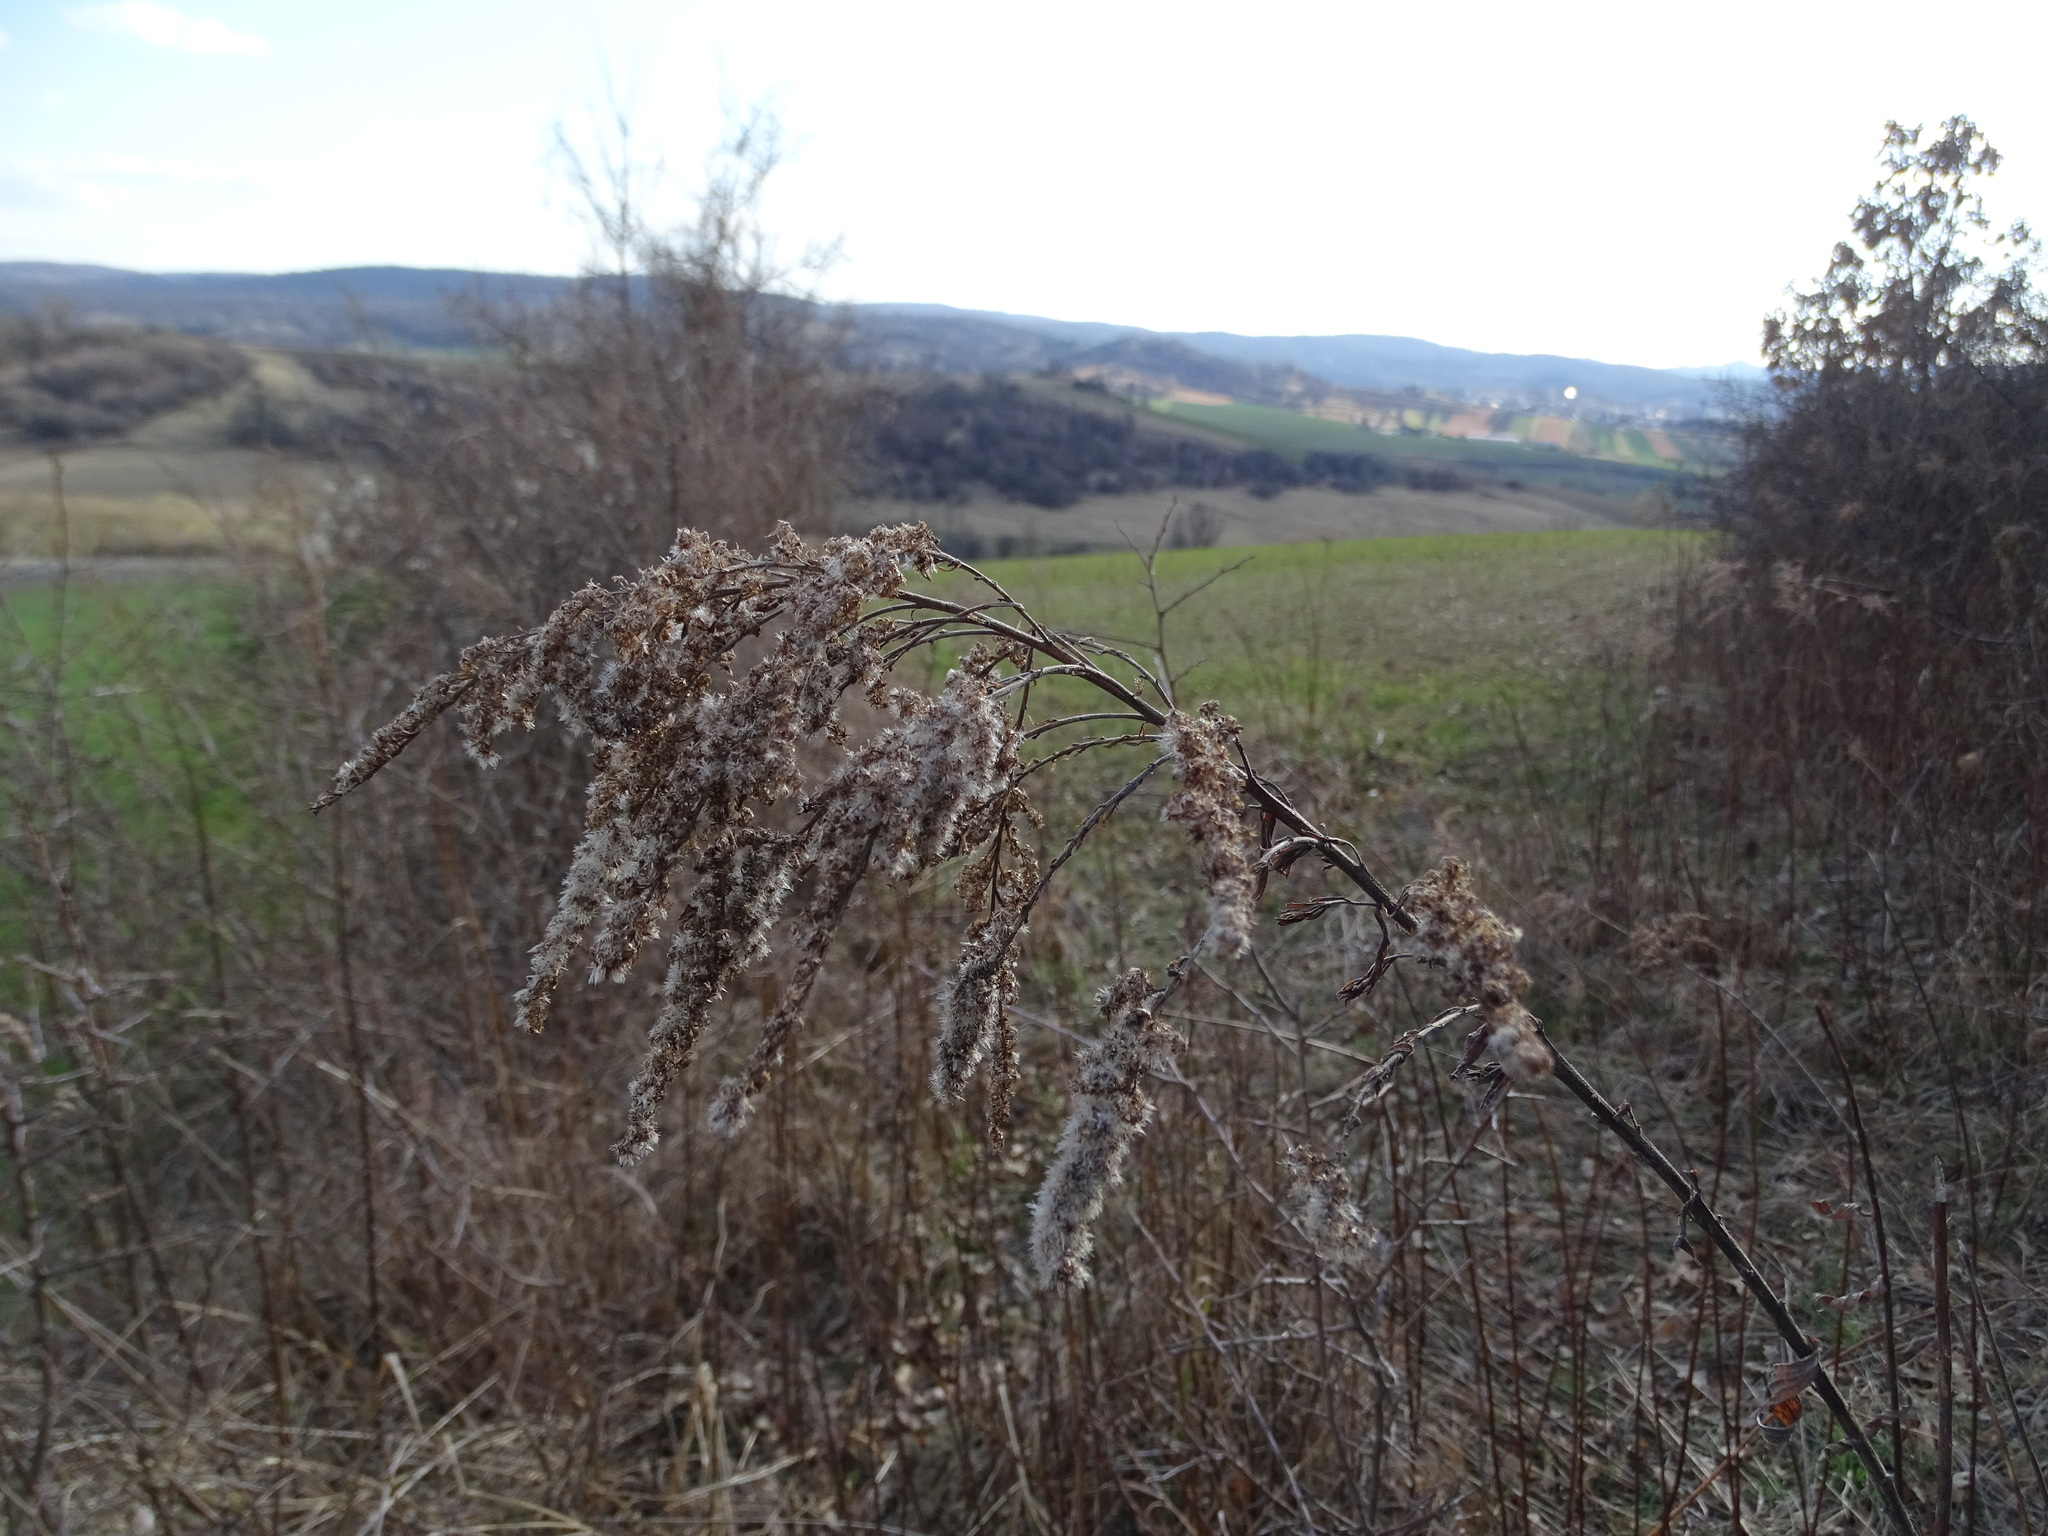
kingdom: Plantae
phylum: Tracheophyta
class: Magnoliopsida
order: Asterales
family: Asteraceae
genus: Solidago
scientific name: Solidago canadensis
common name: Canada goldenrod
